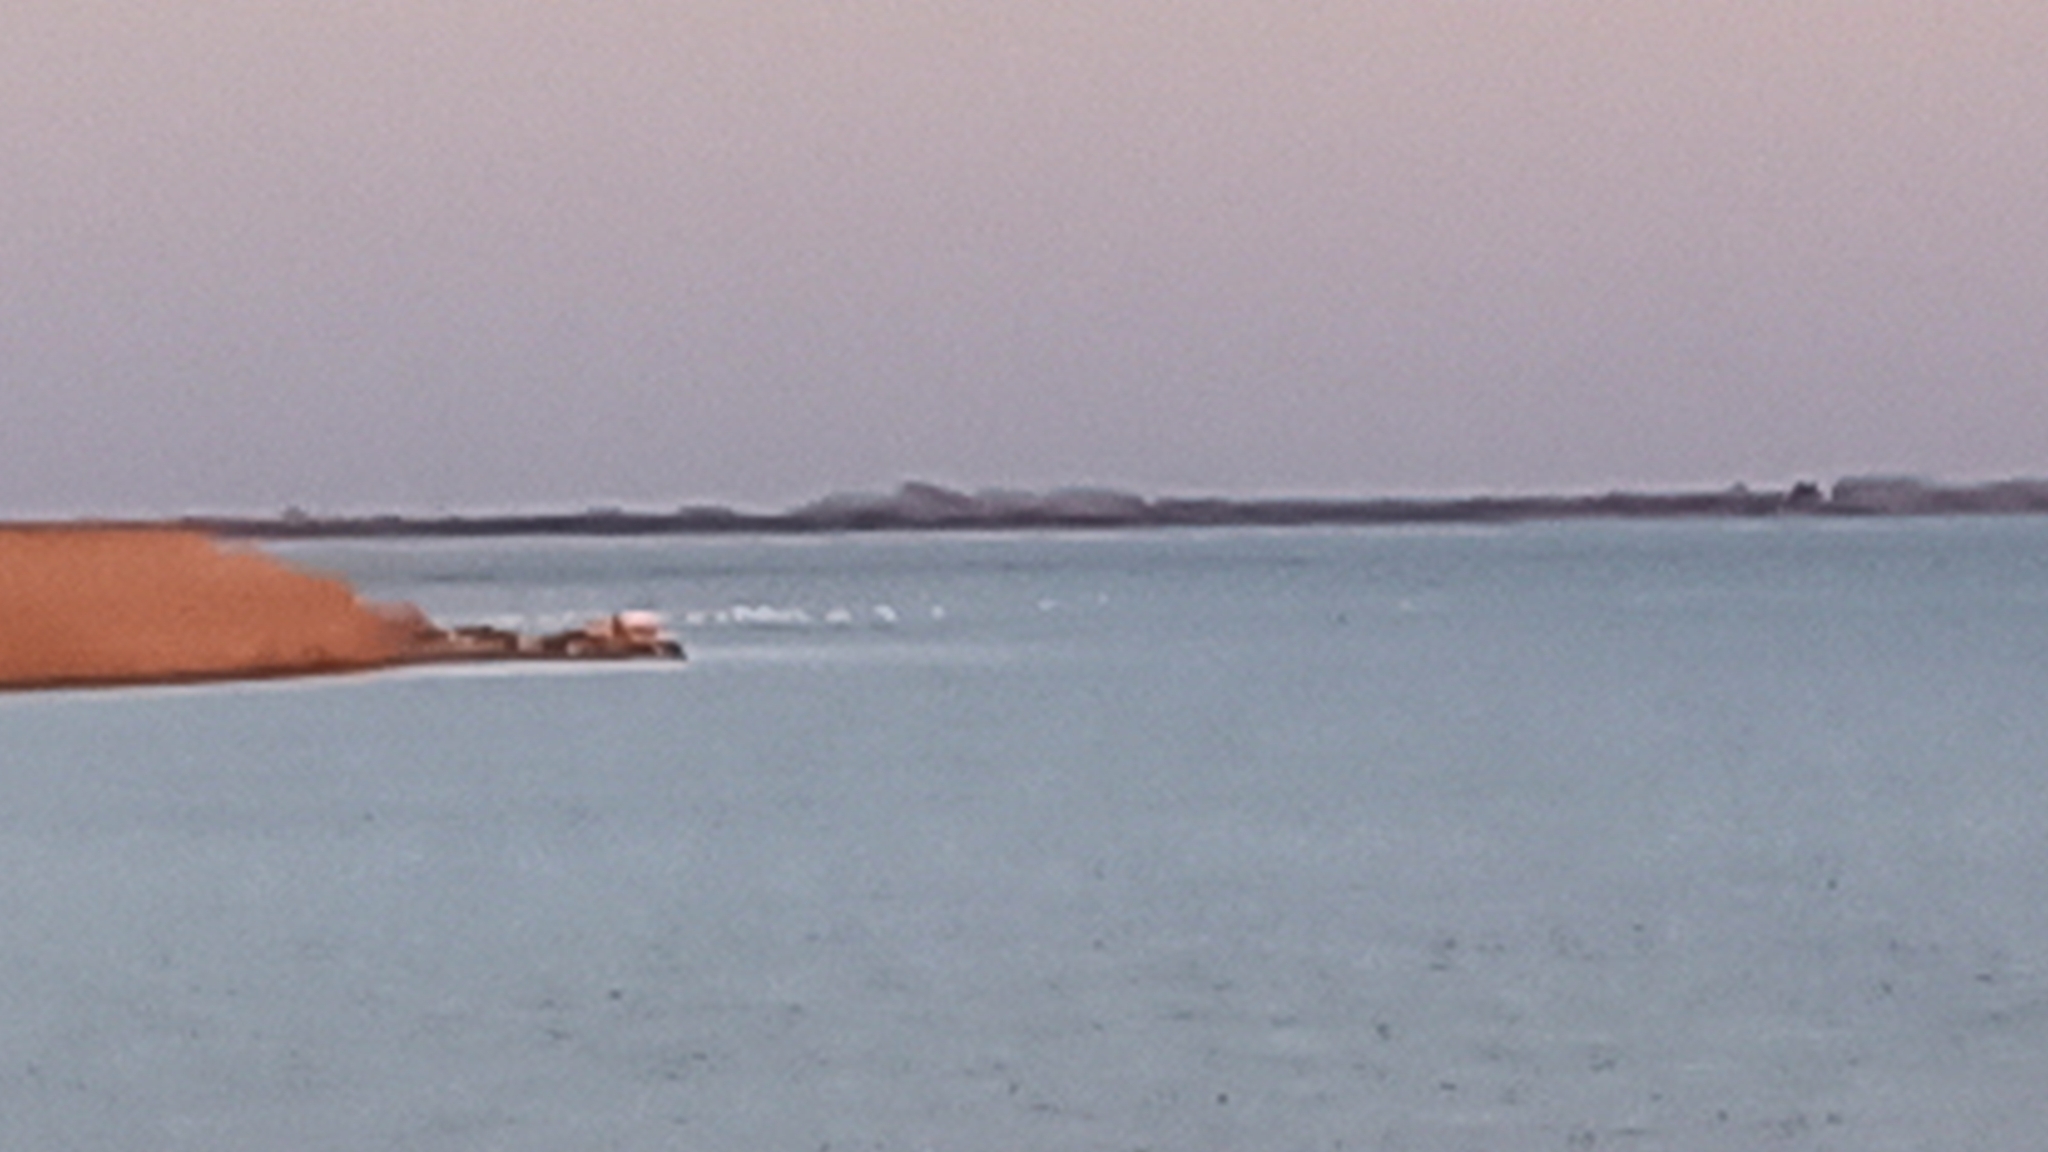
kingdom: Animalia
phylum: Chordata
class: Aves
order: Phoenicopteriformes
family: Phoenicopteridae
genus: Phoenicopterus
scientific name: Phoenicopterus roseus
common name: Greater flamingo
